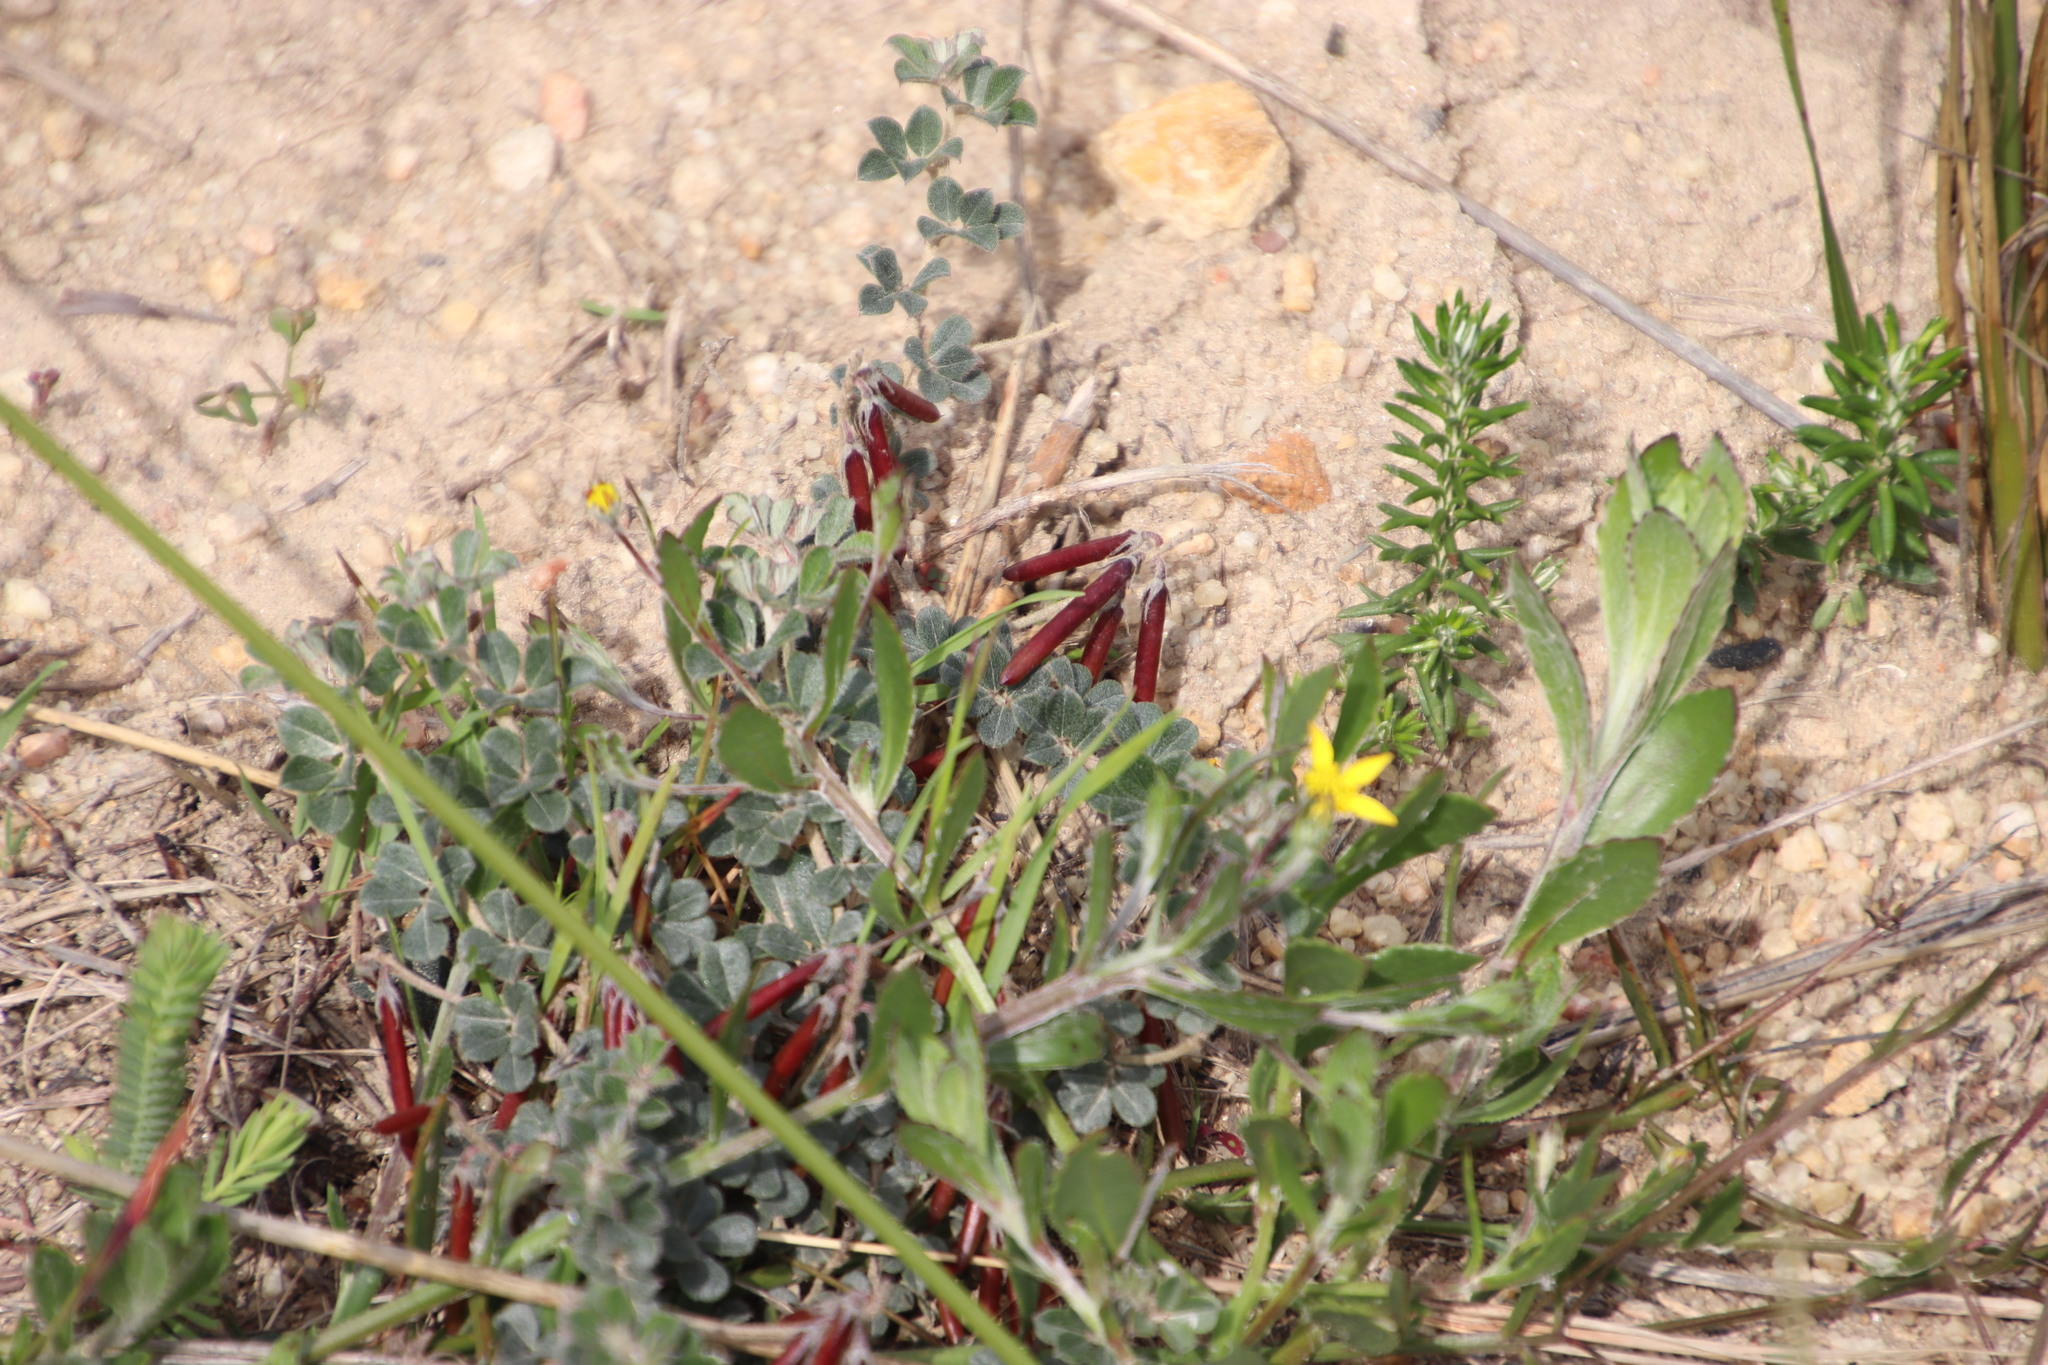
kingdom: Plantae
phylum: Tracheophyta
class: Magnoliopsida
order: Fabales
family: Fabaceae
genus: Indigofera
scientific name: Indigofera mauritanica
